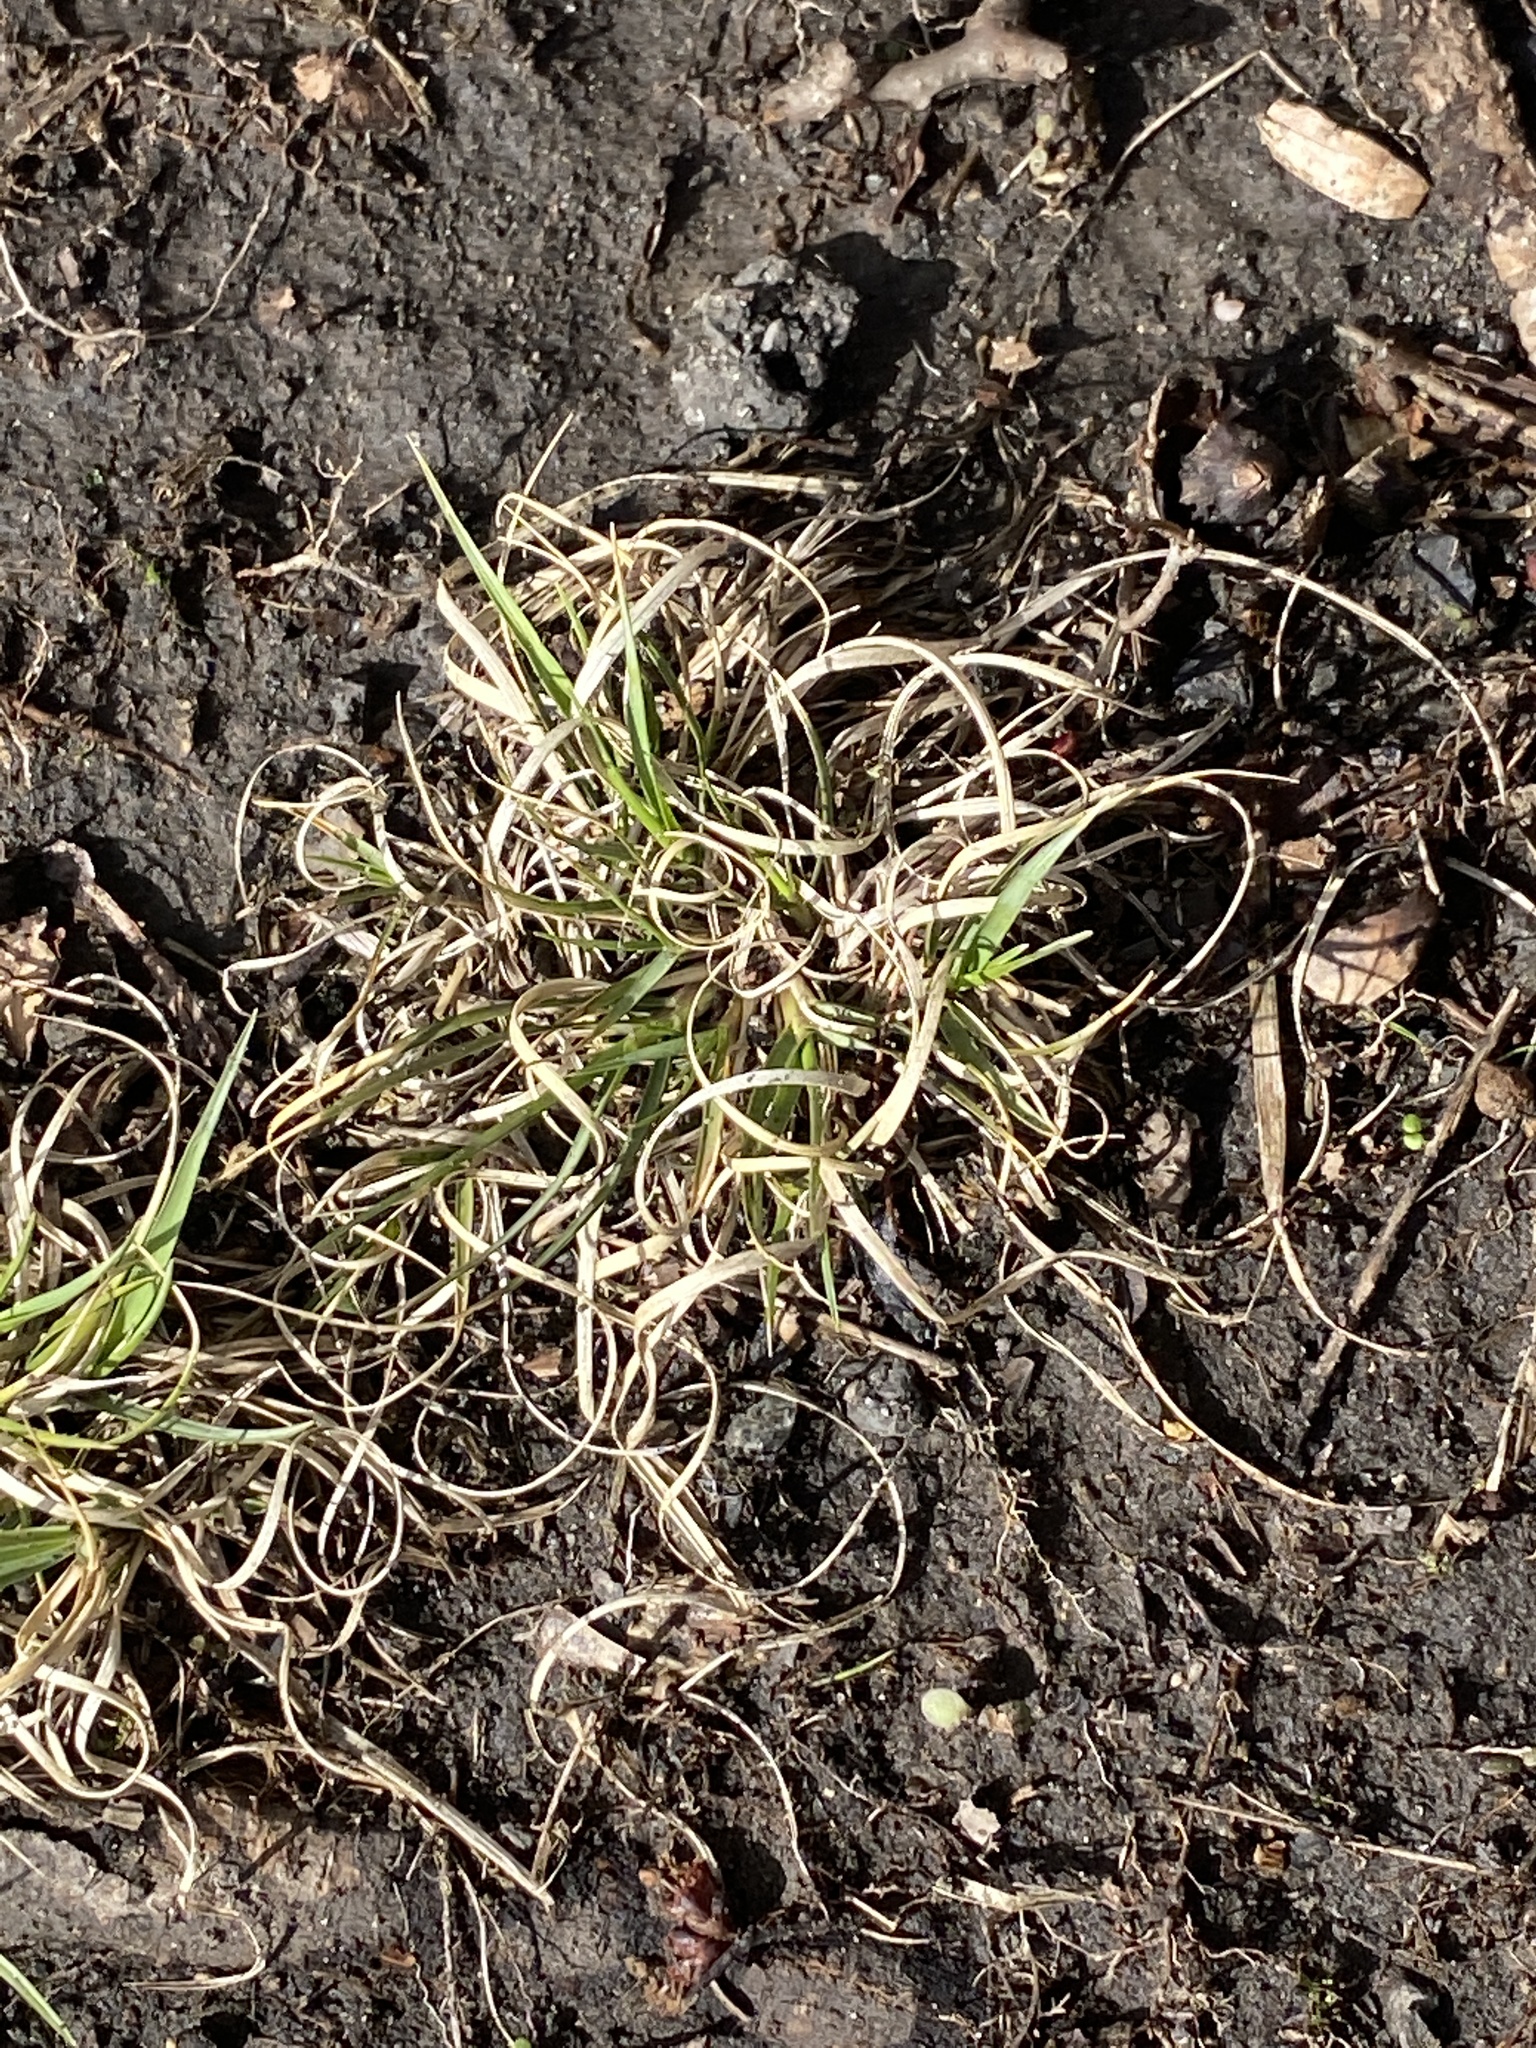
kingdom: Plantae
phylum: Tracheophyta
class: Liliopsida
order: Poales
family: Poaceae
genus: Danthonia
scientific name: Danthonia spicata
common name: Common wild oatgrass
